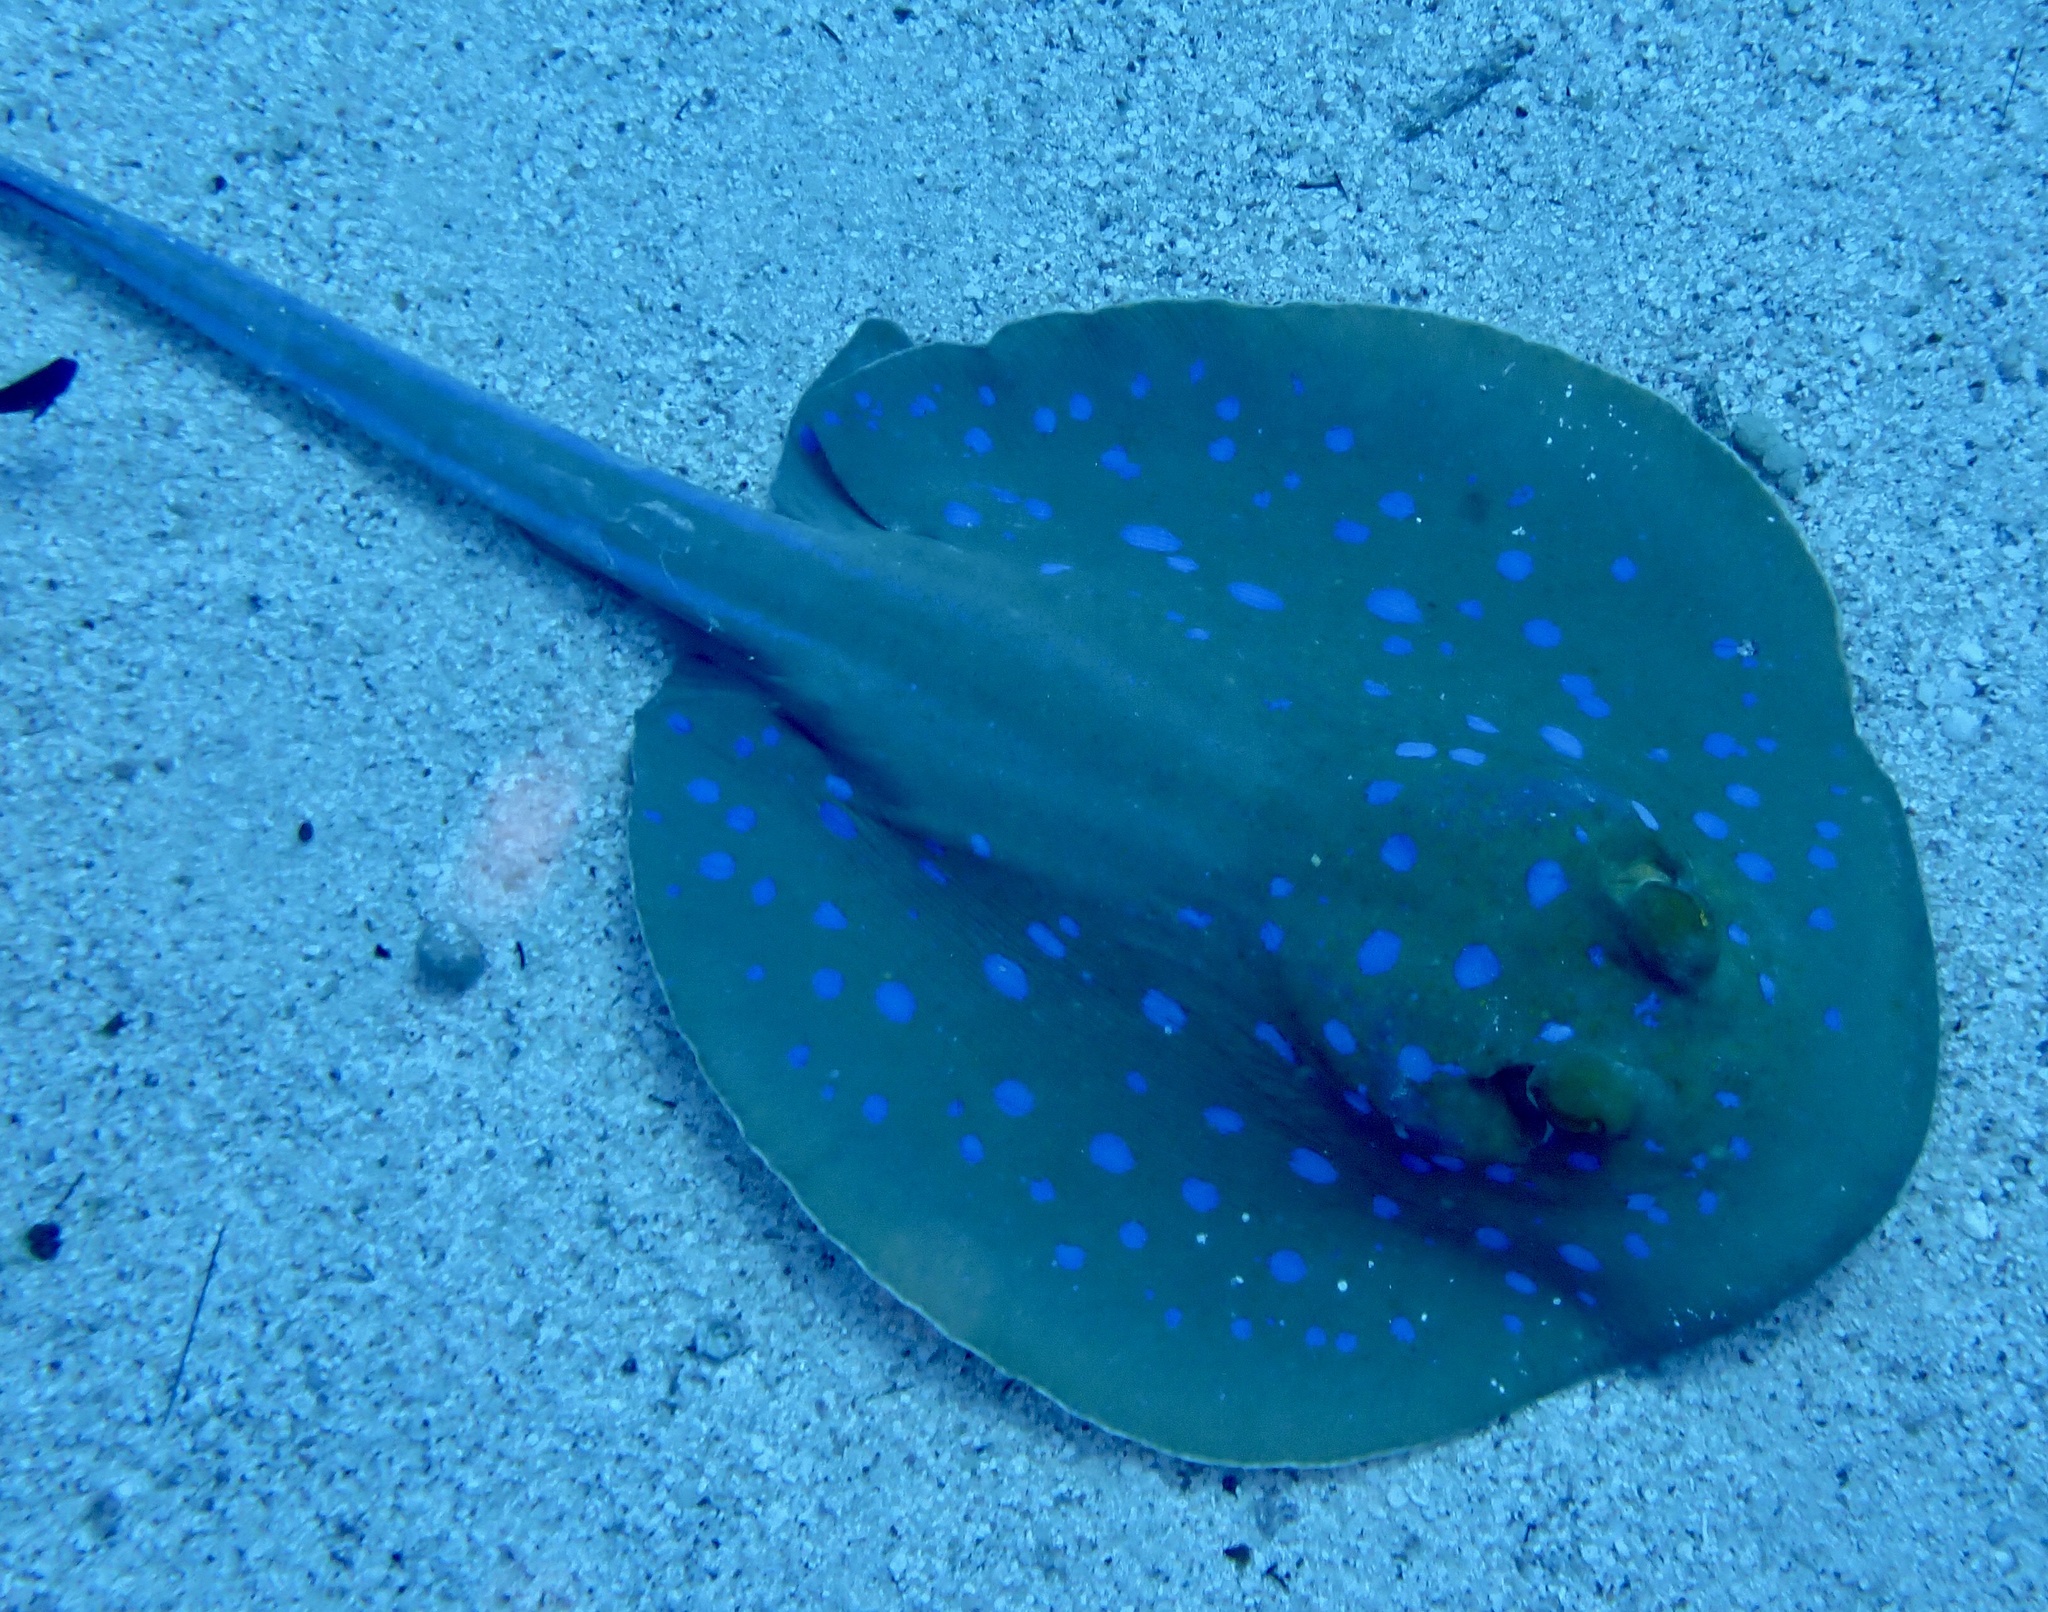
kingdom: Animalia
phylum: Chordata
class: Elasmobranchii
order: Myliobatiformes
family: Dasyatidae
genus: Taeniura
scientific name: Taeniura lymma
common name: Bluespotted ribbontail ray
